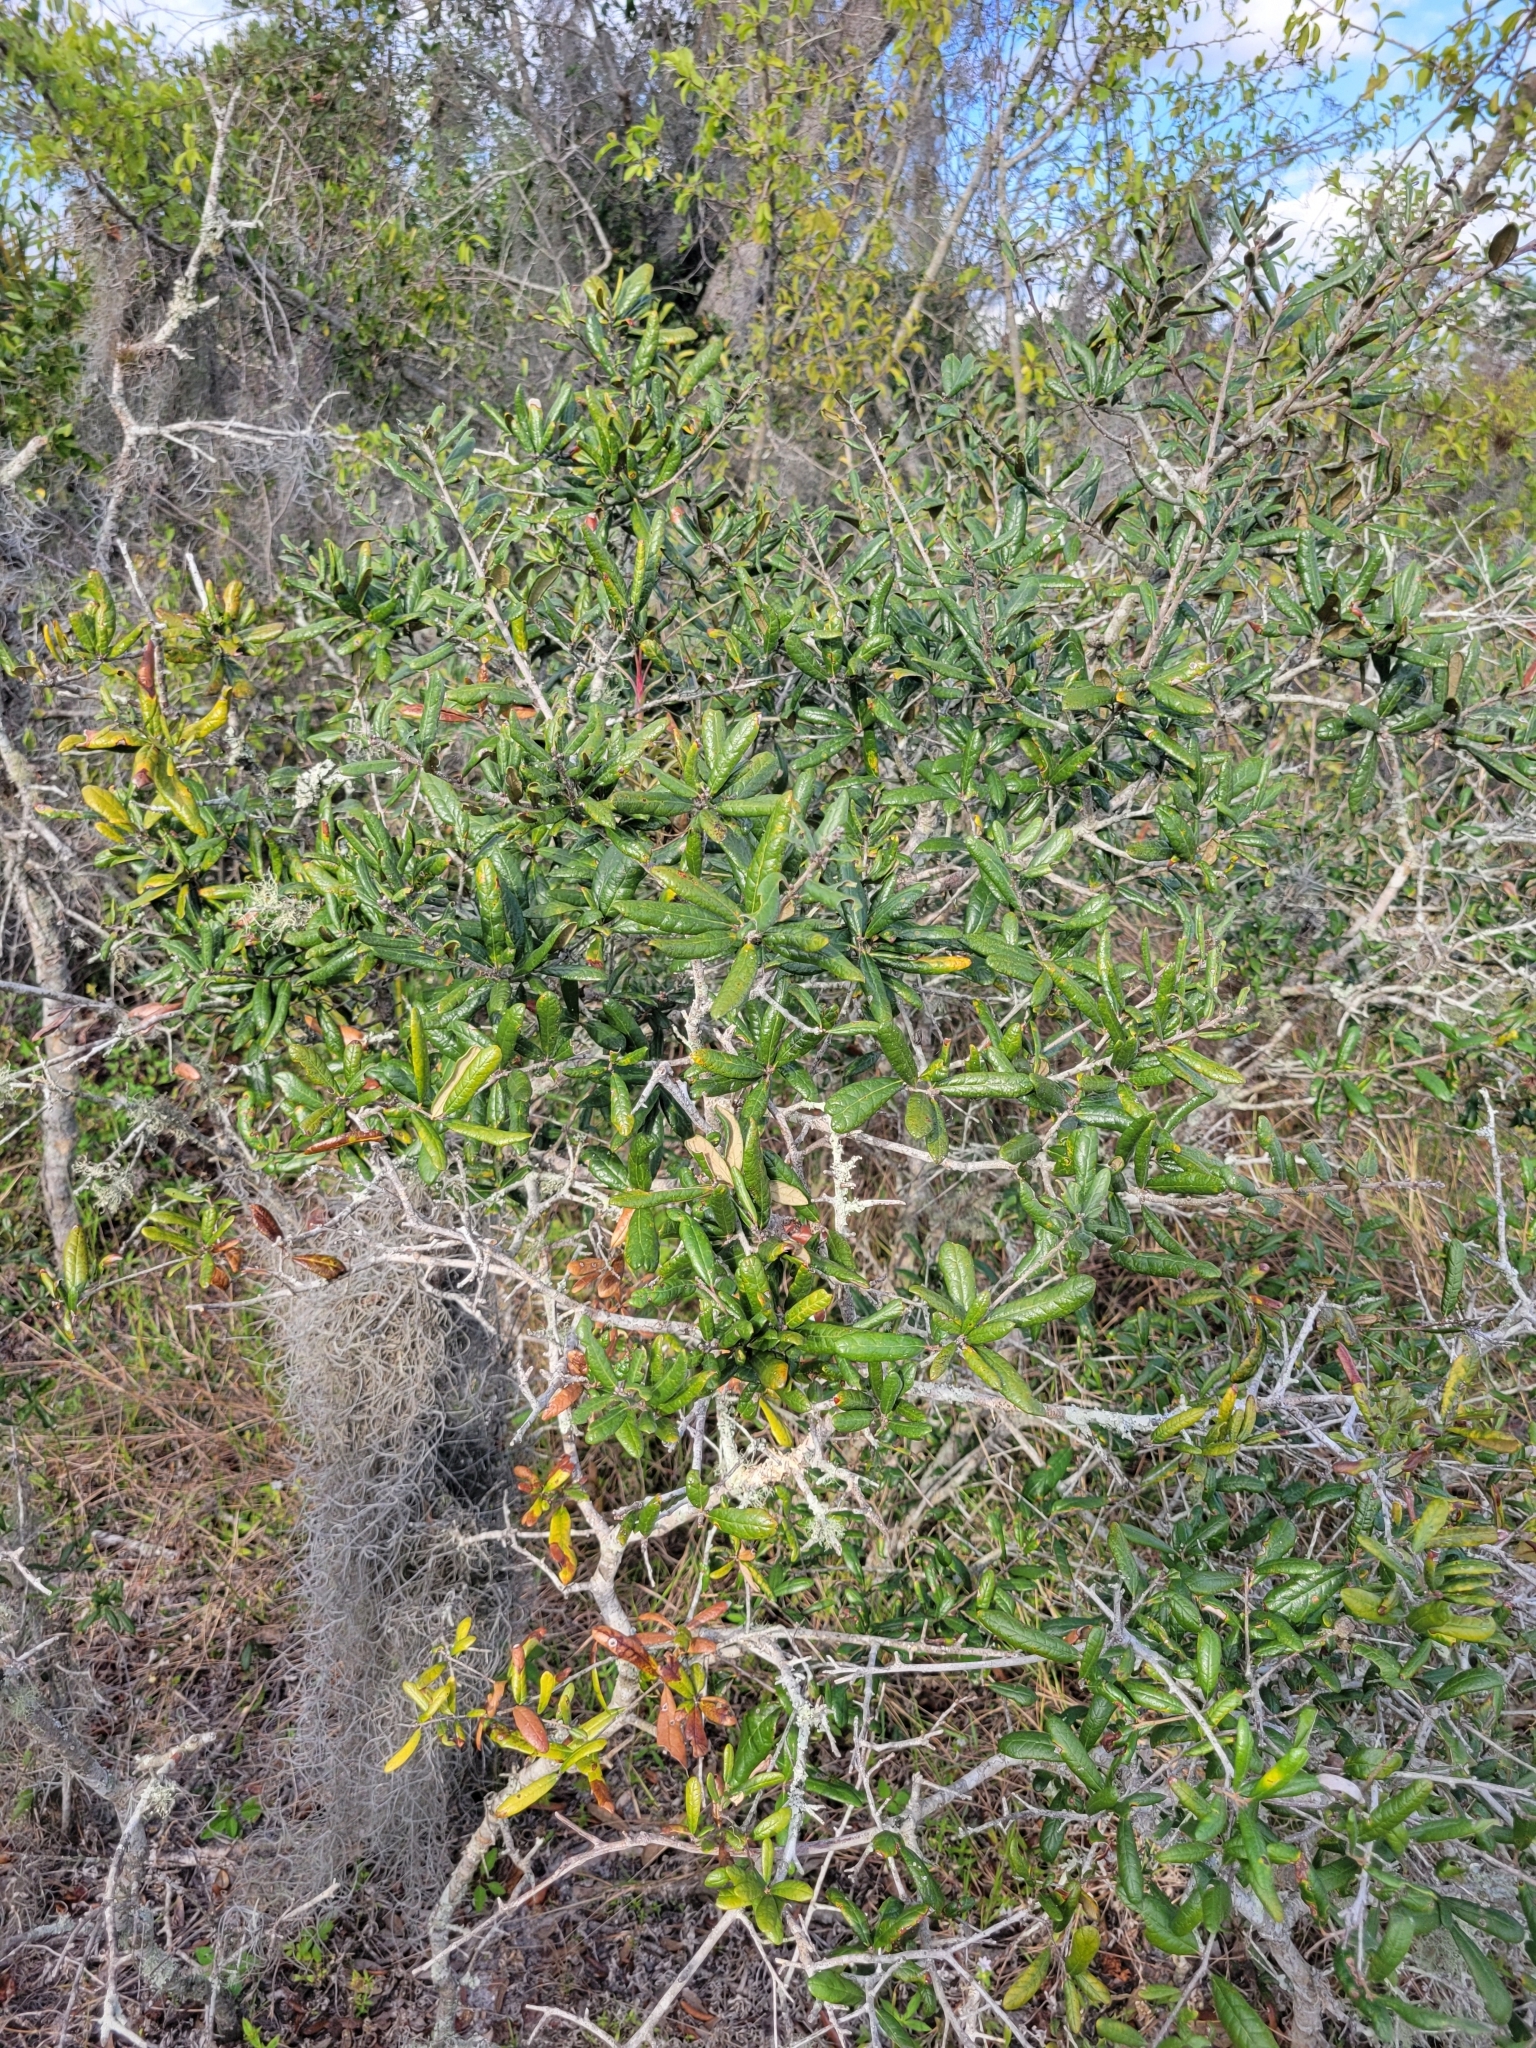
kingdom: Plantae
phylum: Tracheophyta
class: Magnoliopsida
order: Fagales
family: Fagaceae
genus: Quercus
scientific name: Quercus geminata
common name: Sand live oak
